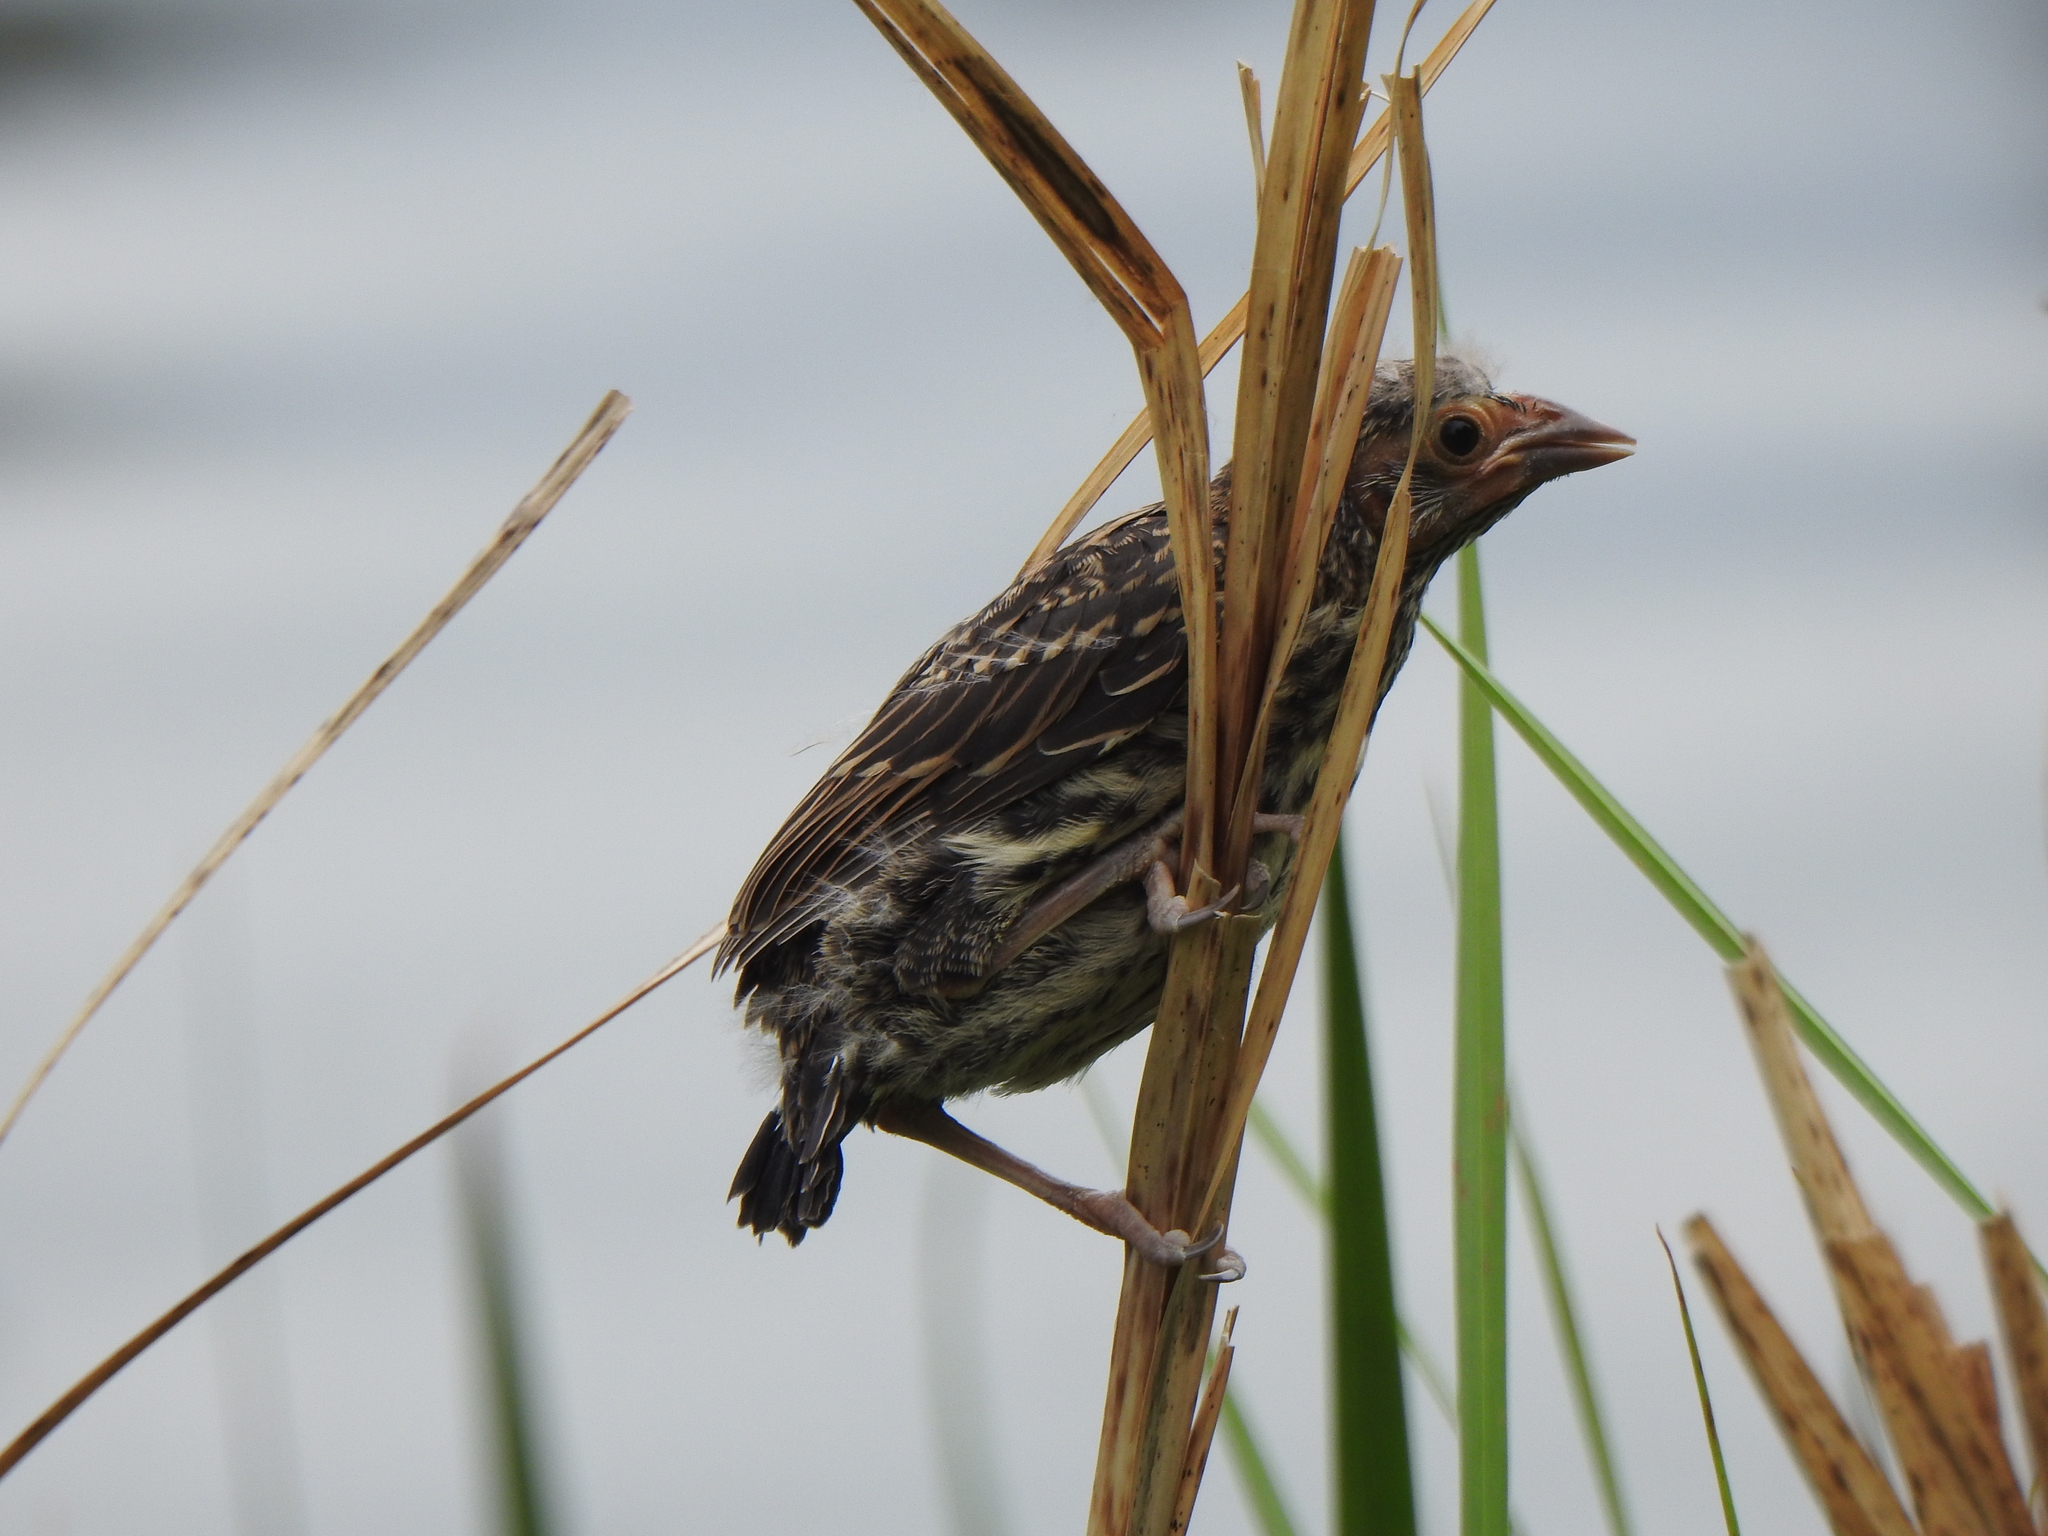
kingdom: Animalia
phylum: Chordata
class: Aves
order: Passeriformes
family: Icteridae
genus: Agelaius
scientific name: Agelaius phoeniceus
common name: Red-winged blackbird
